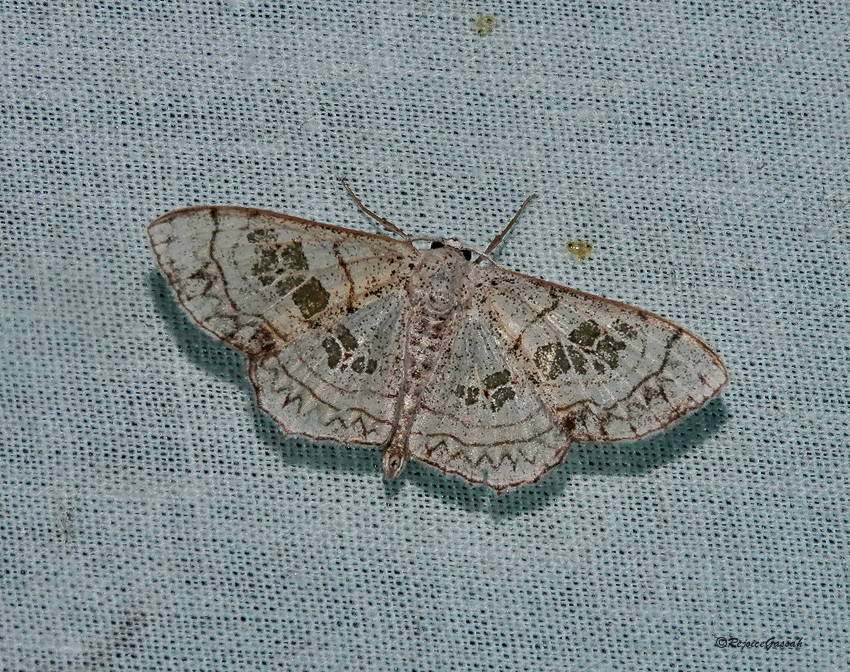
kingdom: Animalia
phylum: Arthropoda
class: Insecta
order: Lepidoptera
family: Geometridae
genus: Scopula
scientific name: Scopula
